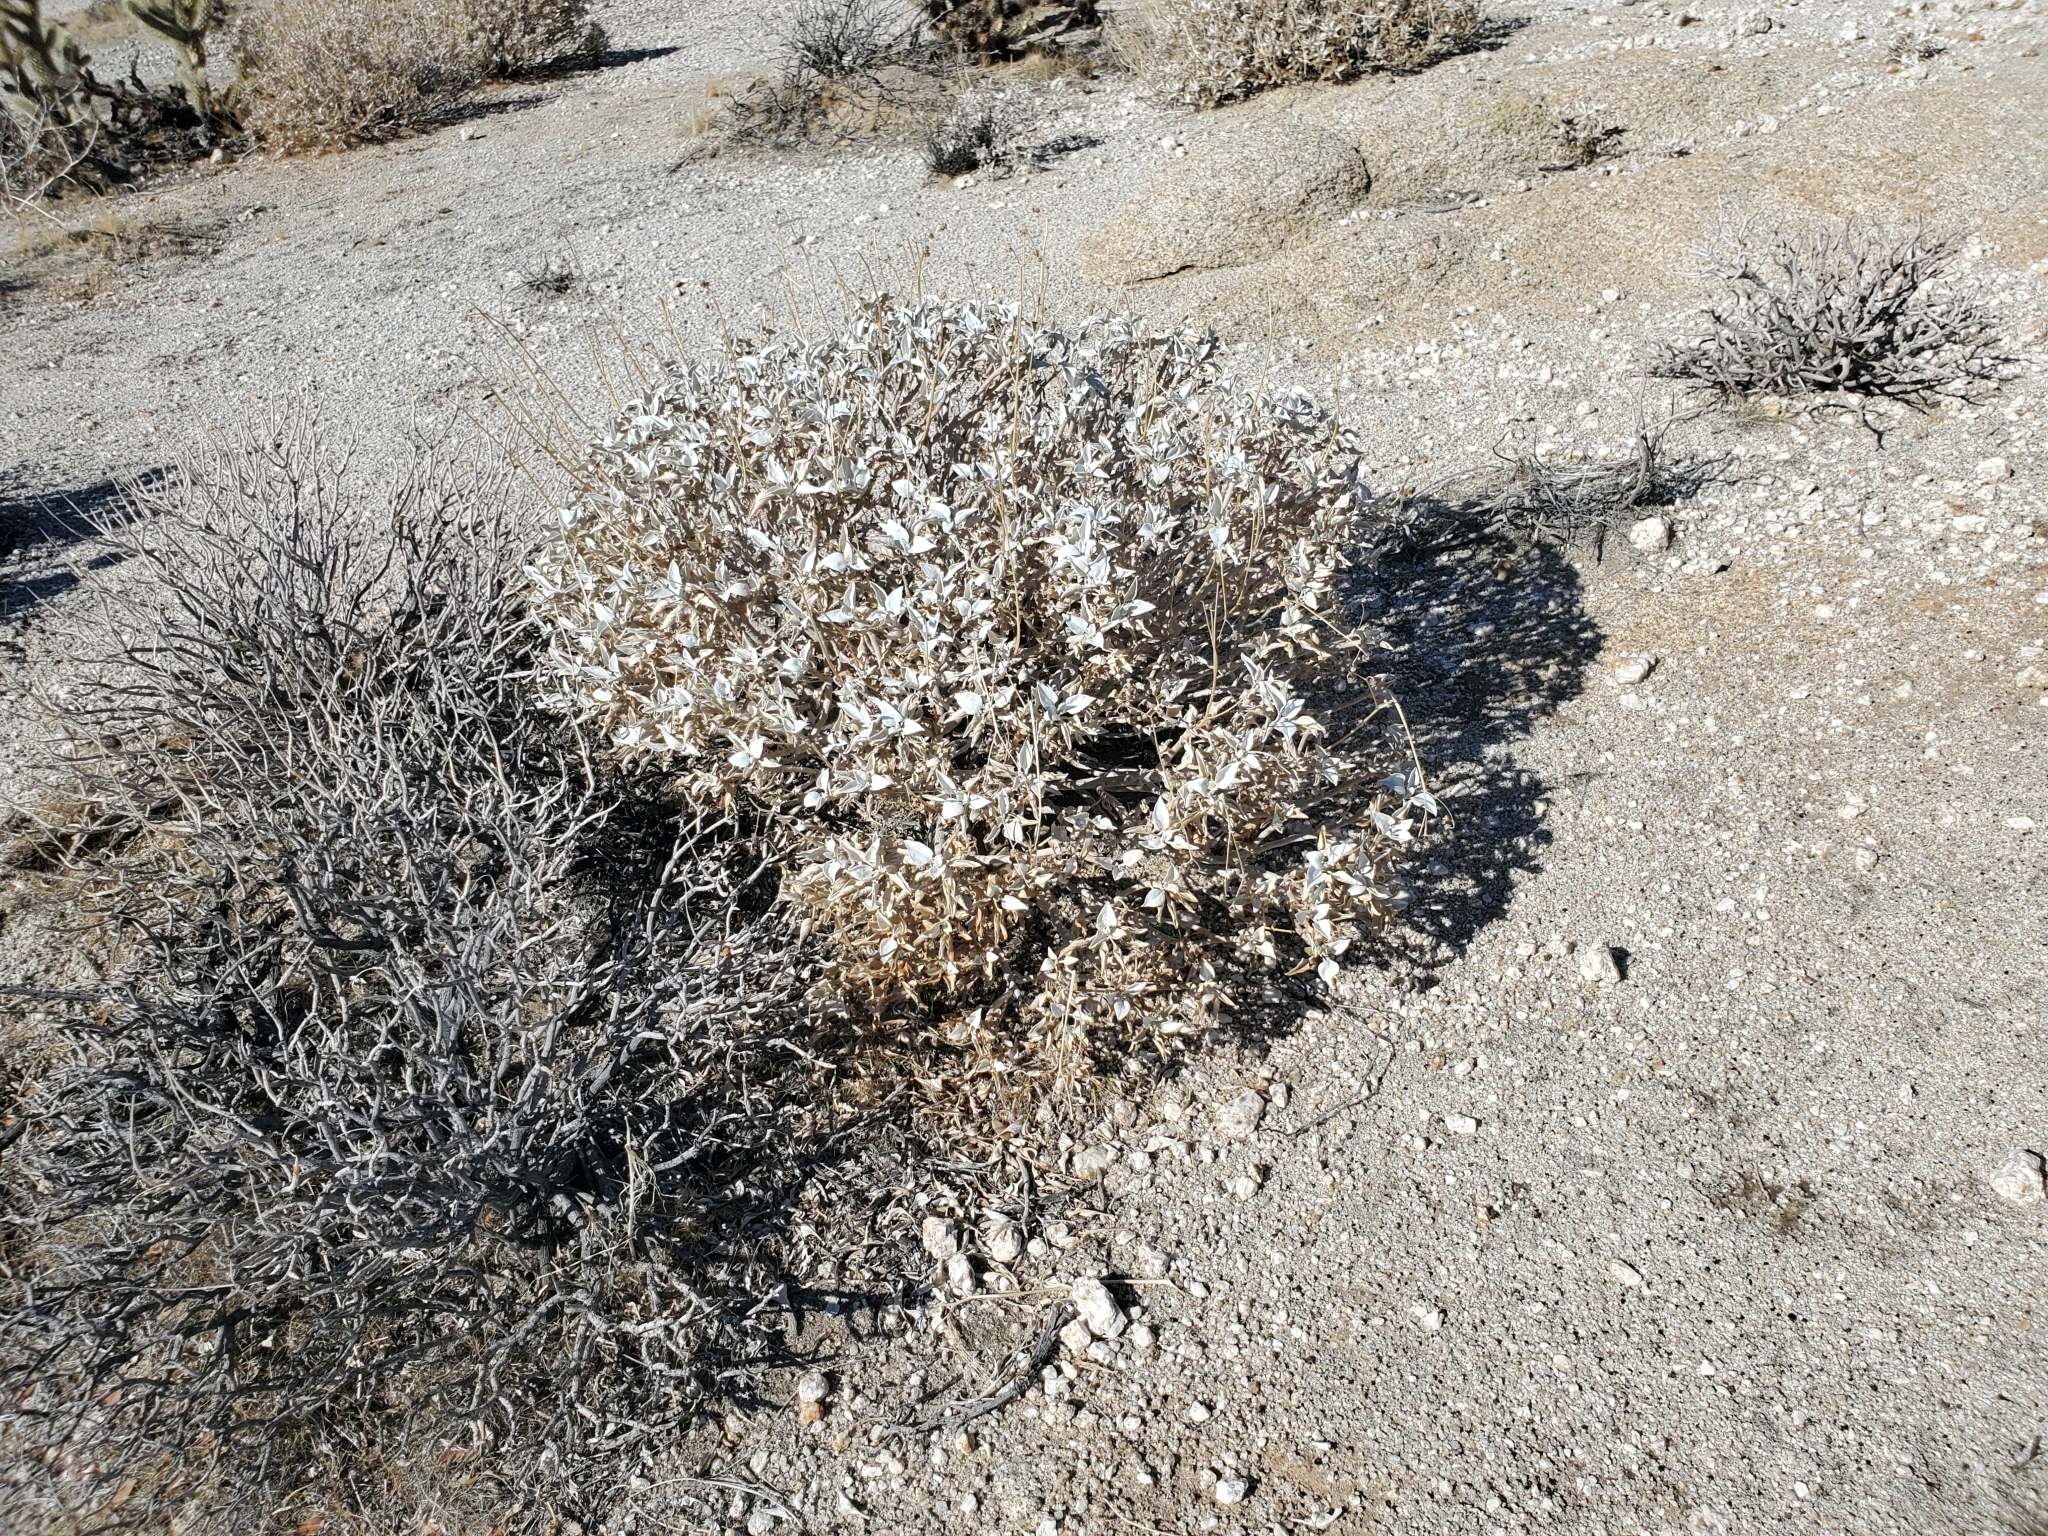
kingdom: Plantae
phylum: Tracheophyta
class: Magnoliopsida
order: Asterales
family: Asteraceae
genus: Encelia
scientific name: Encelia farinosa
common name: Brittlebush
